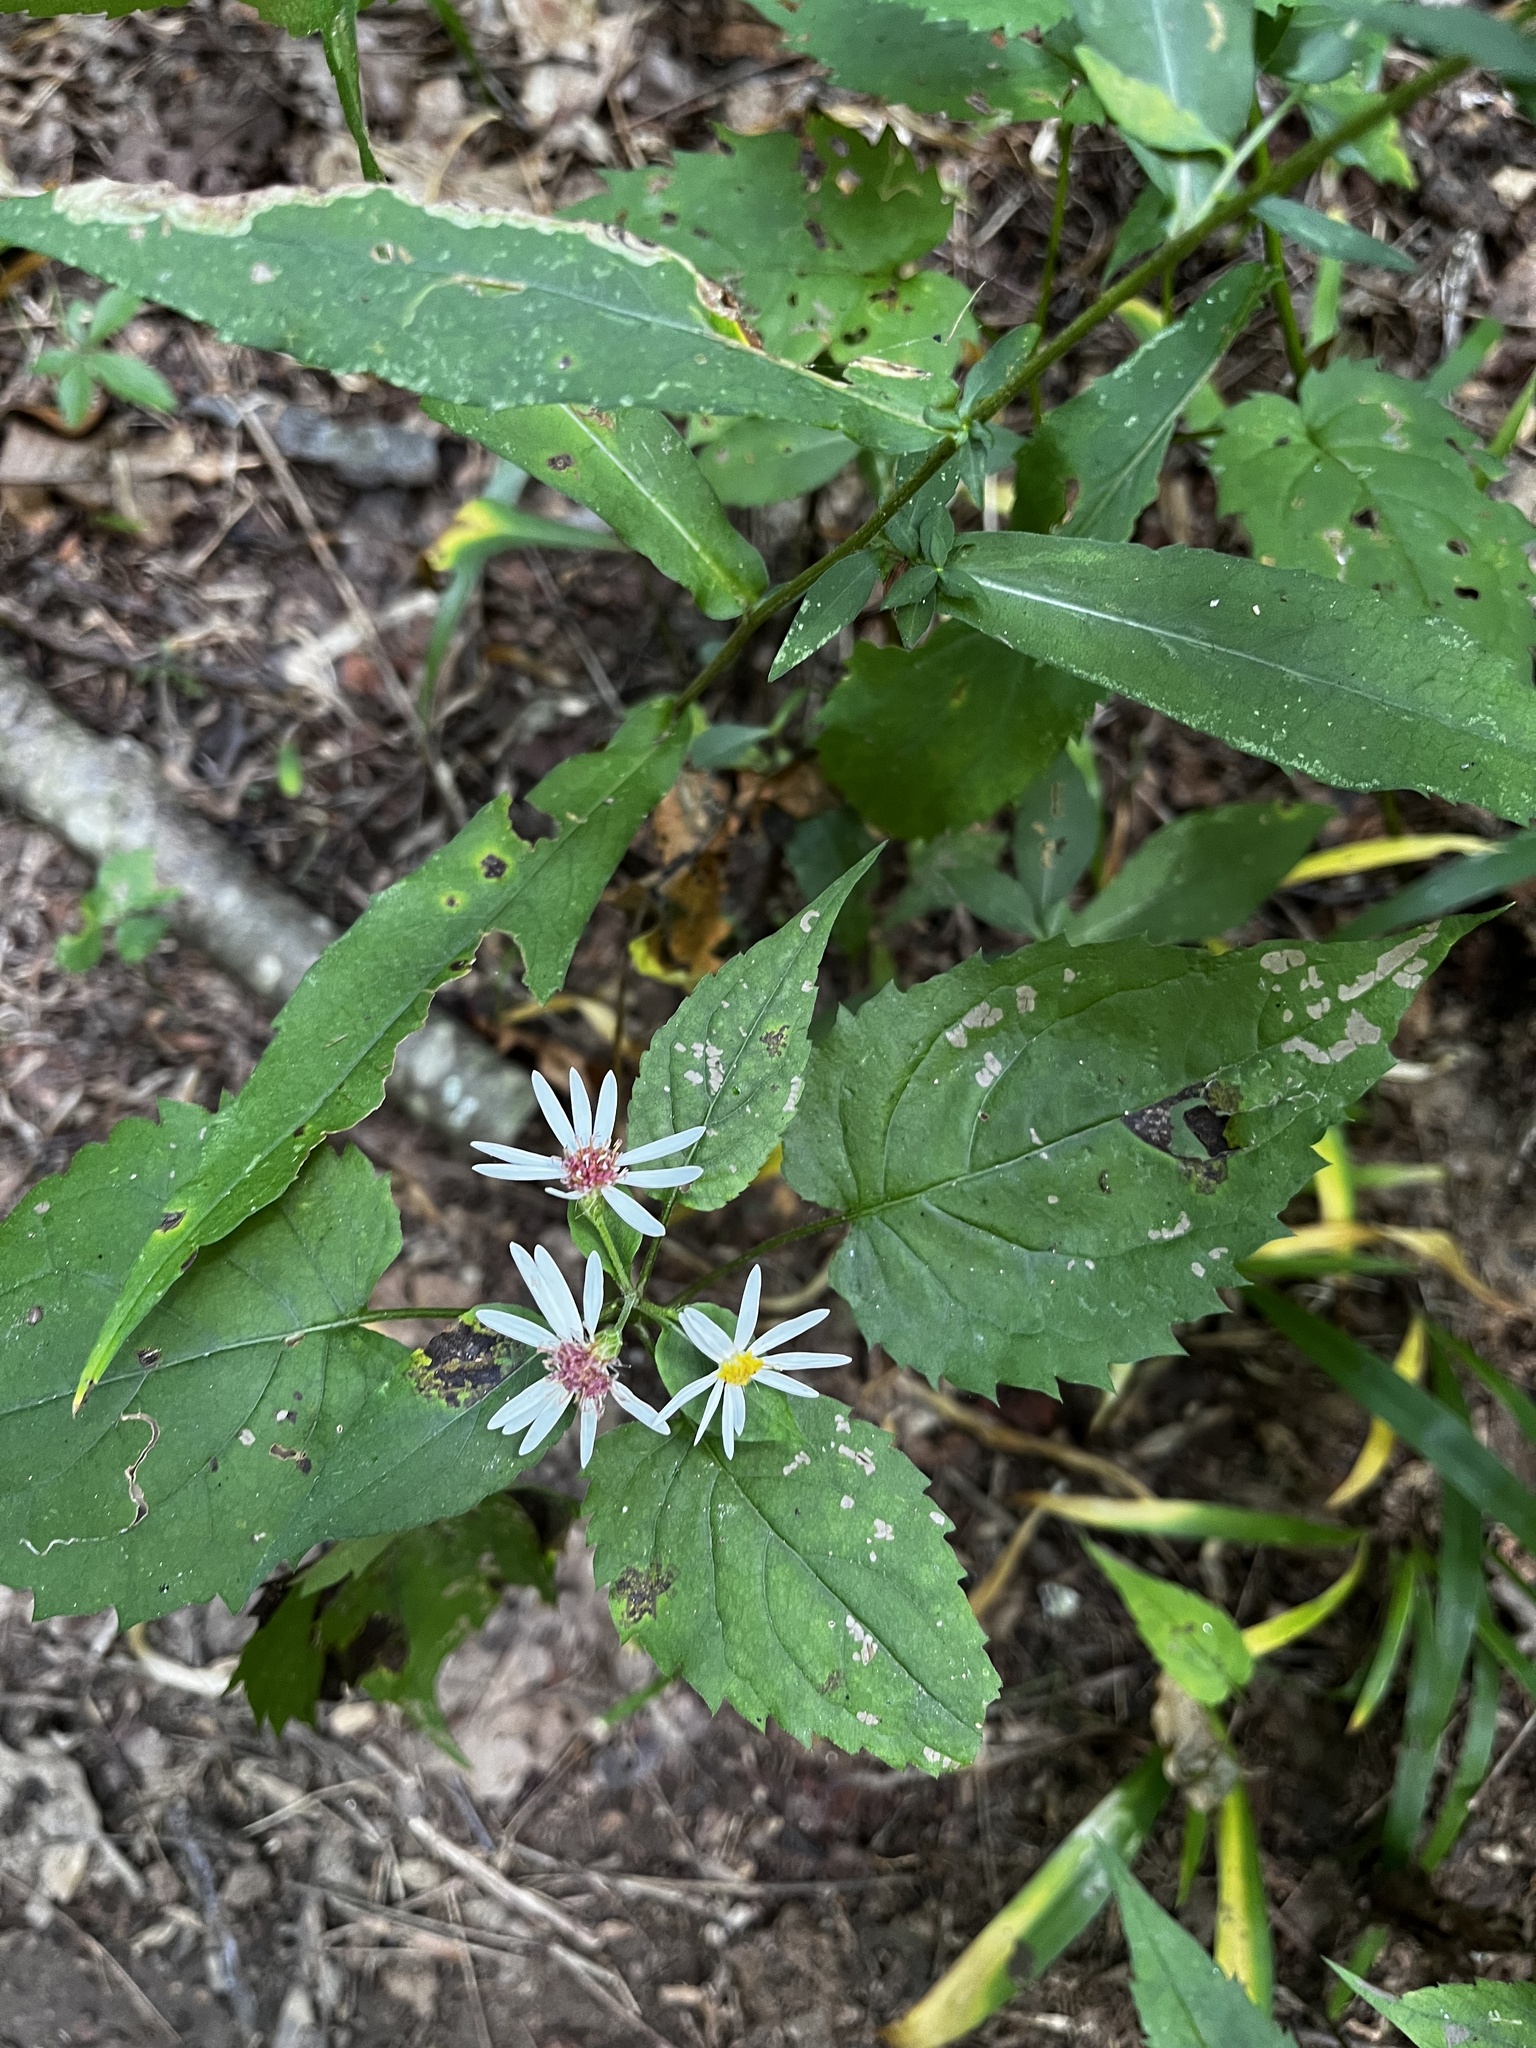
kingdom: Plantae
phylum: Tracheophyta
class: Magnoliopsida
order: Asterales
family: Asteraceae
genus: Eurybia
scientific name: Eurybia divaricata
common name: White wood aster
